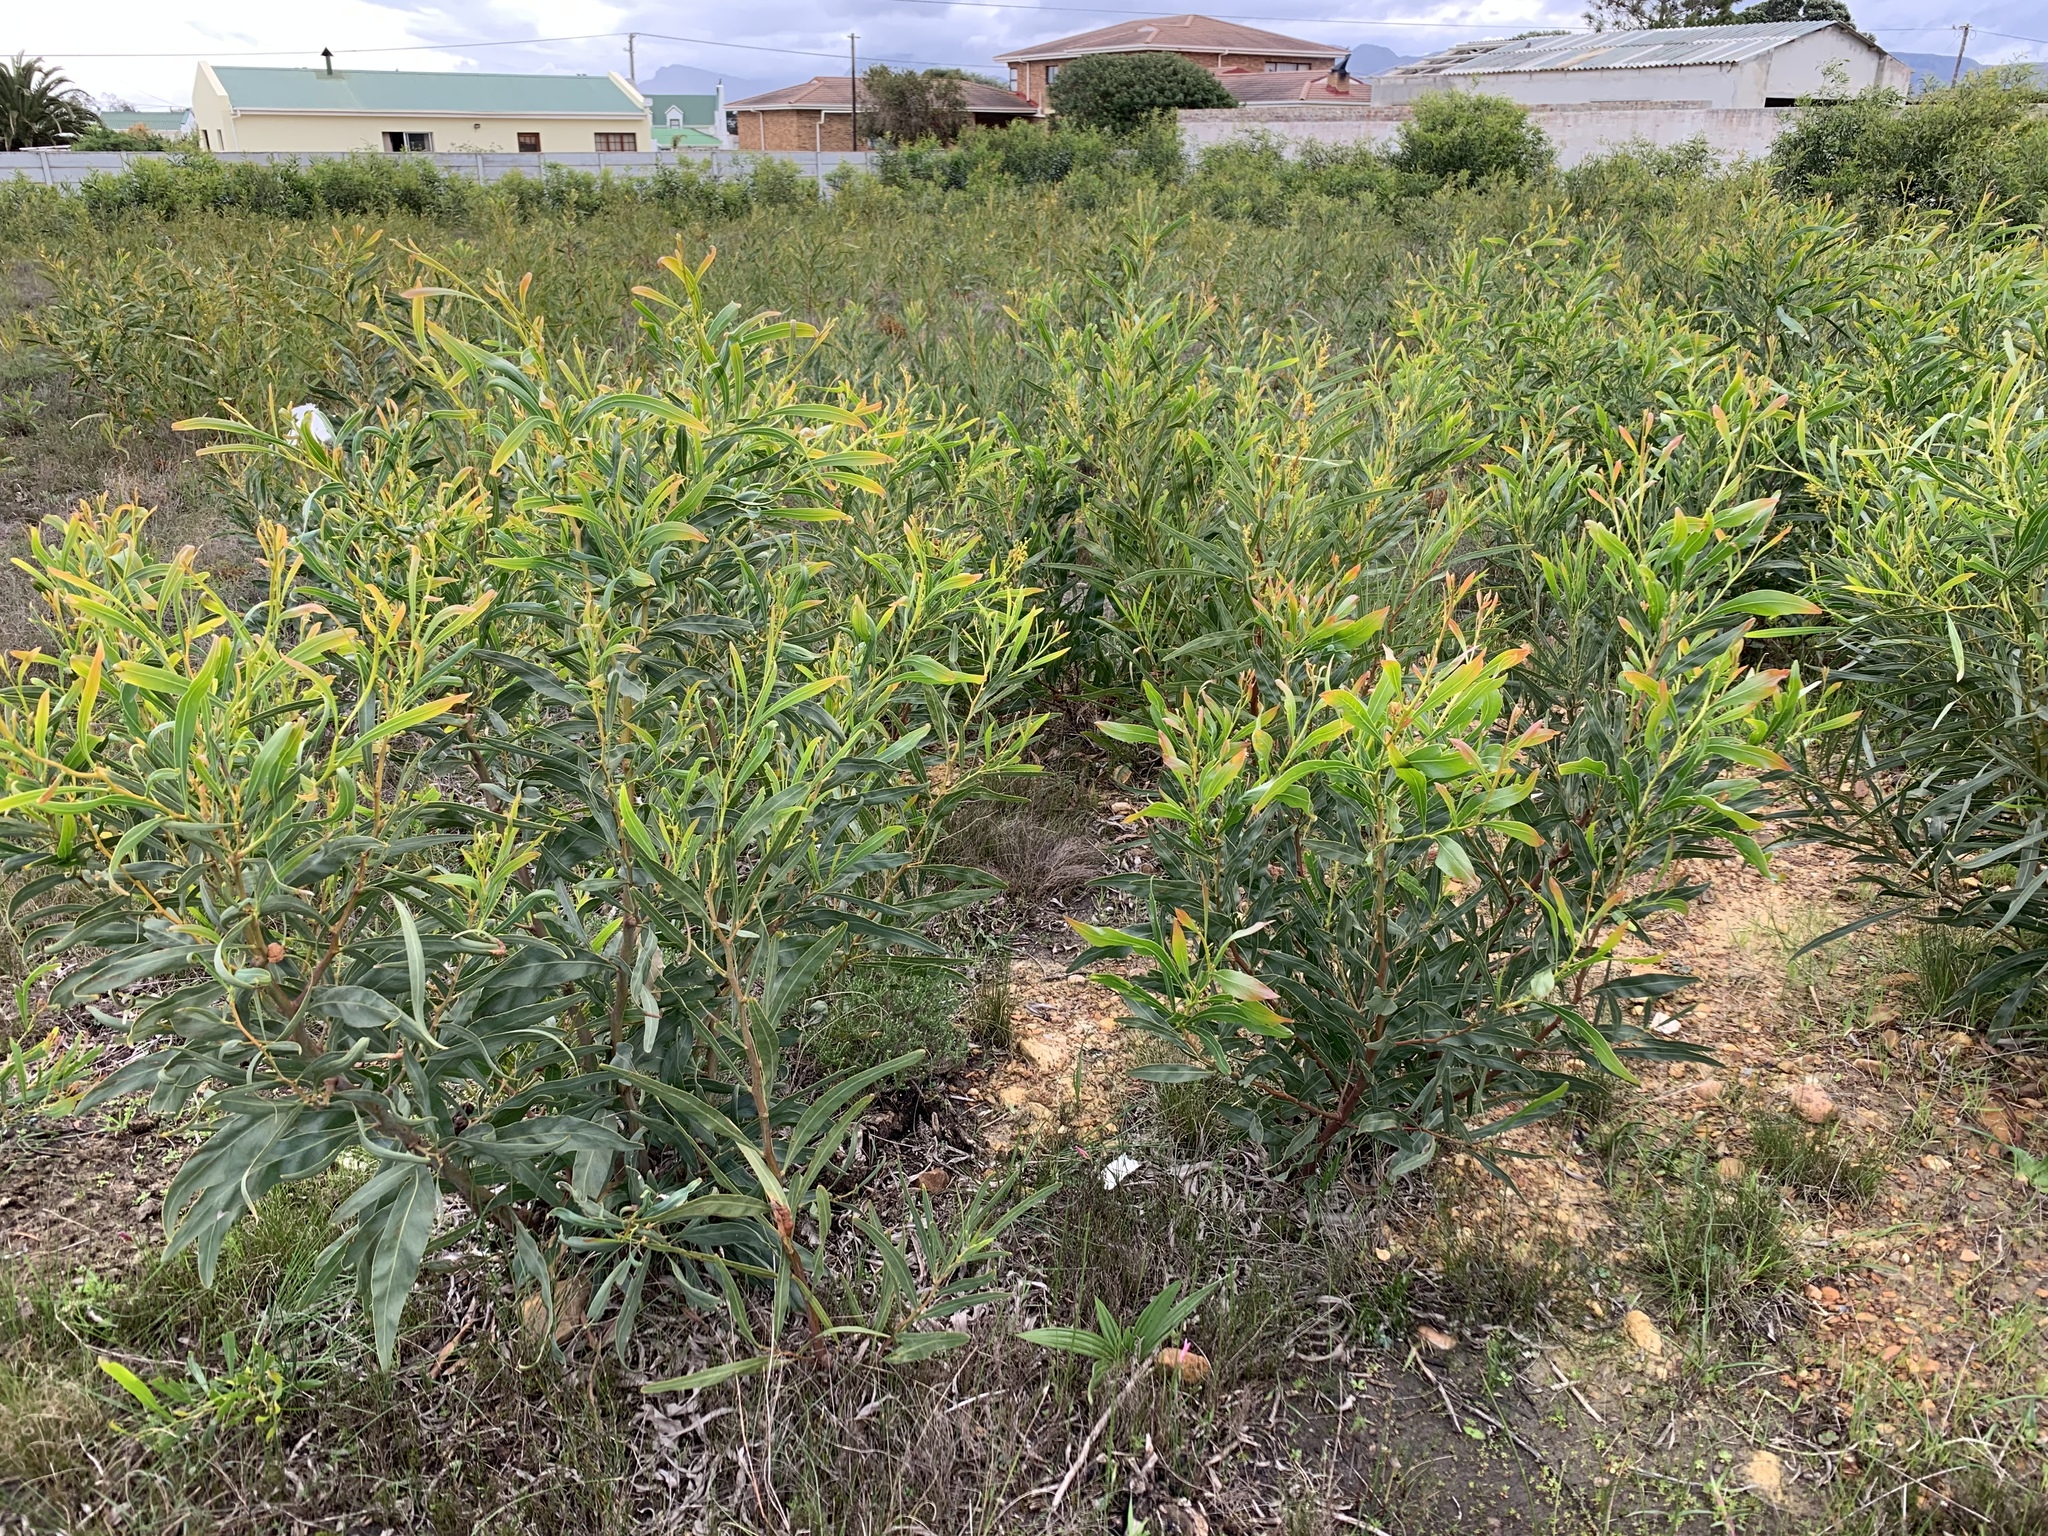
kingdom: Plantae
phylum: Tracheophyta
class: Magnoliopsida
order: Fabales
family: Fabaceae
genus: Acacia
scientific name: Acacia saligna
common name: Orange wattle
